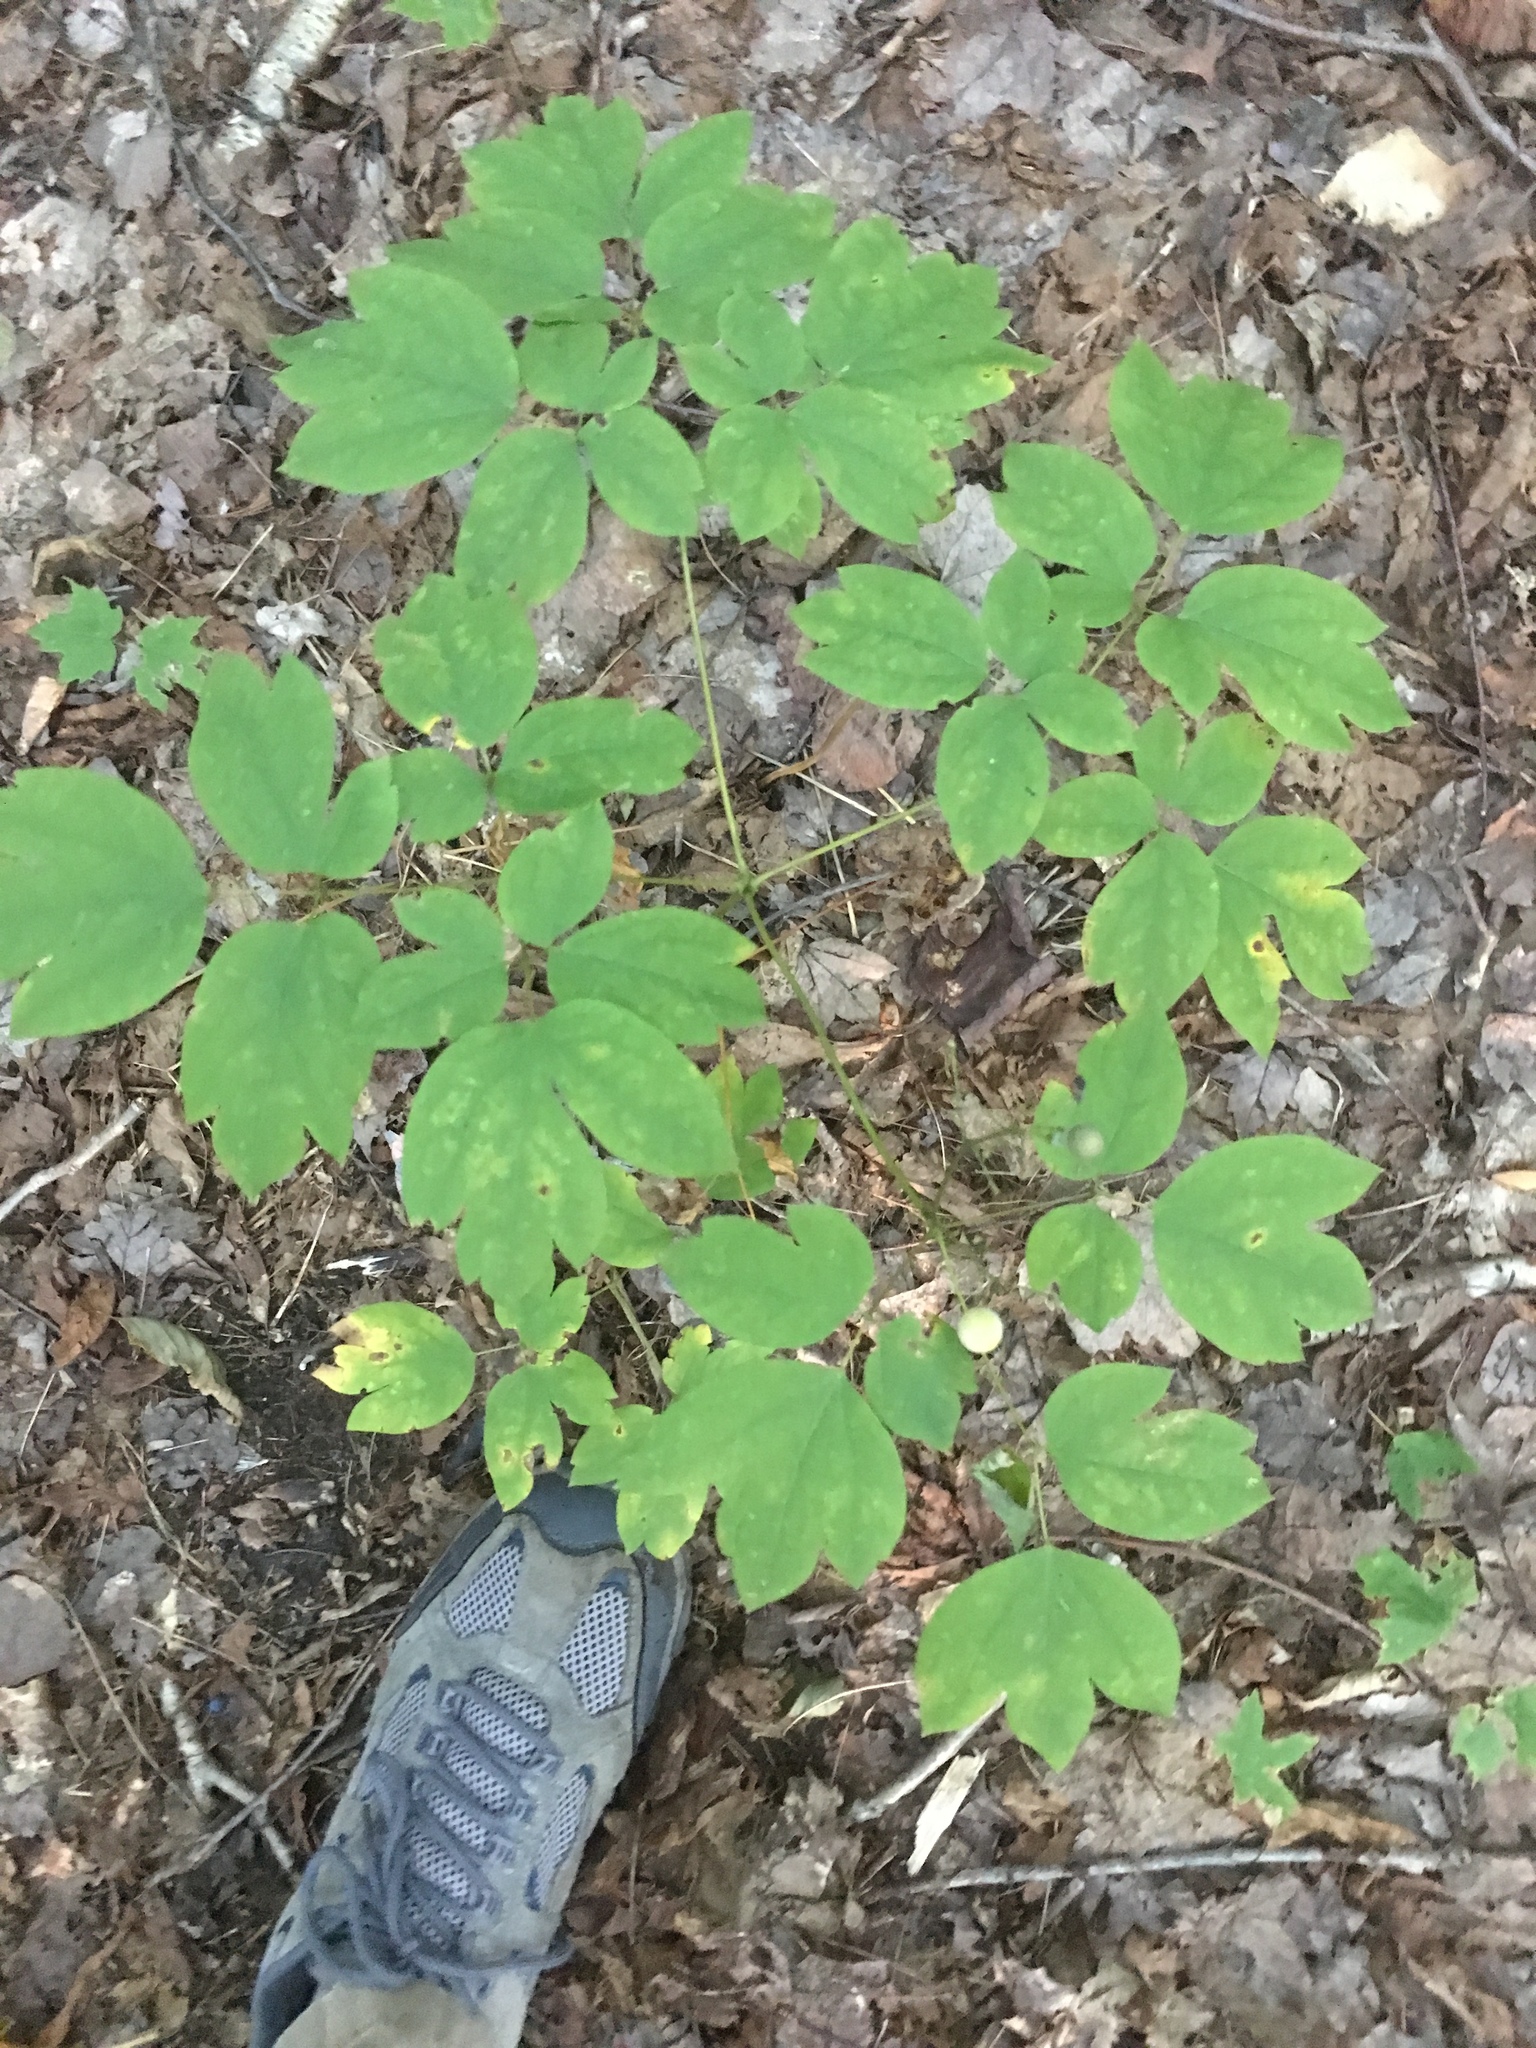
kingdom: Plantae
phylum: Tracheophyta
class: Magnoliopsida
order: Ranunculales
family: Berberidaceae
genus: Caulophyllum
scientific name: Caulophyllum
